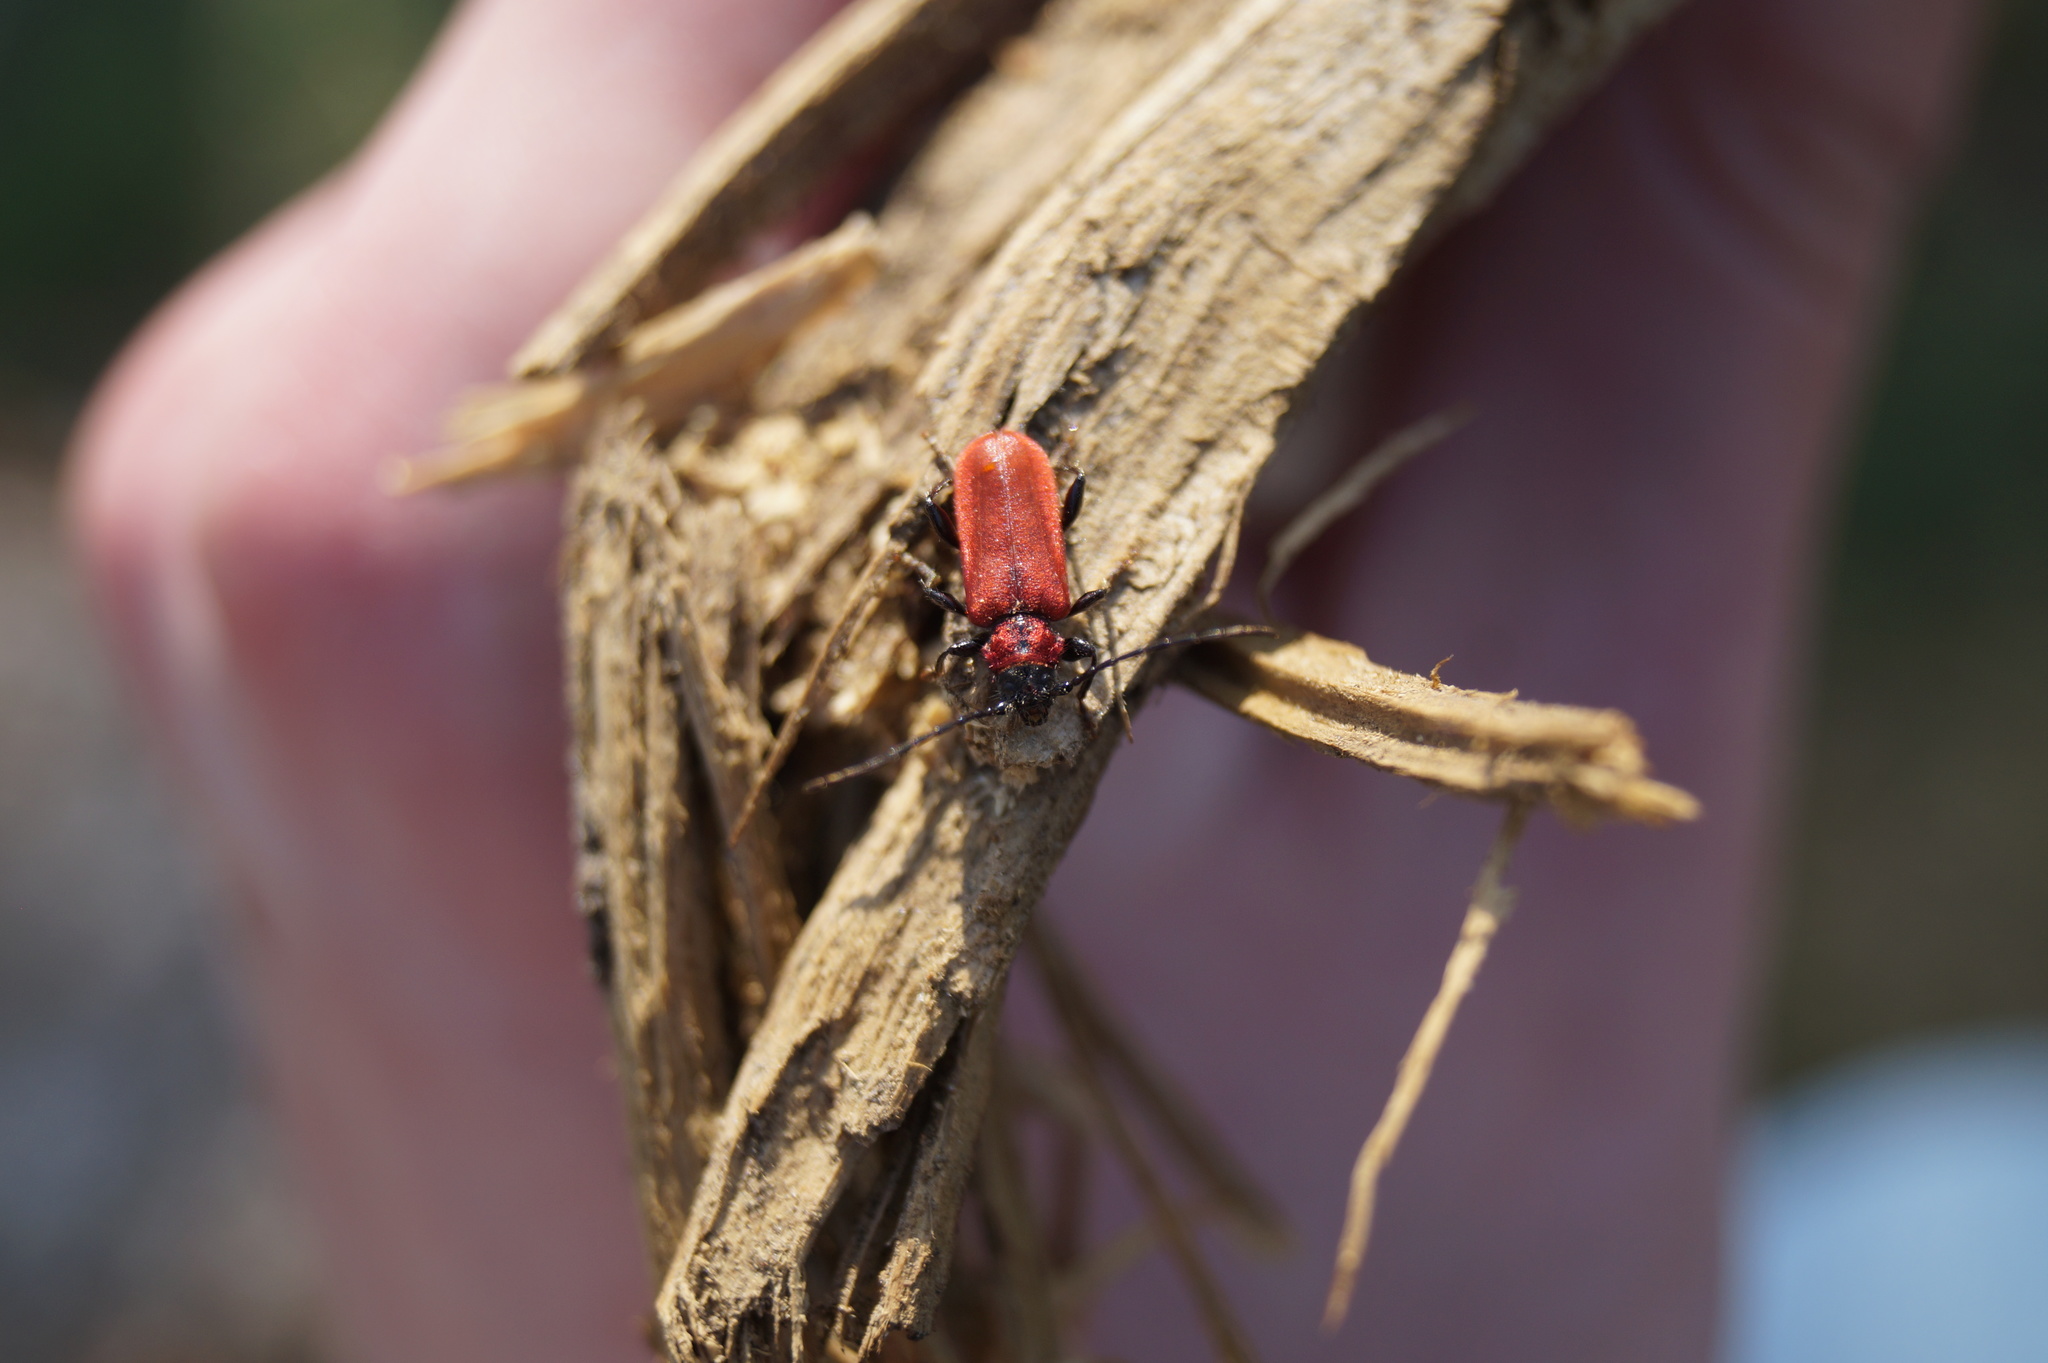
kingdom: Animalia
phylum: Arthropoda
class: Insecta
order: Coleoptera
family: Cerambycidae
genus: Pyrrhidium
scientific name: Pyrrhidium sanguineum
